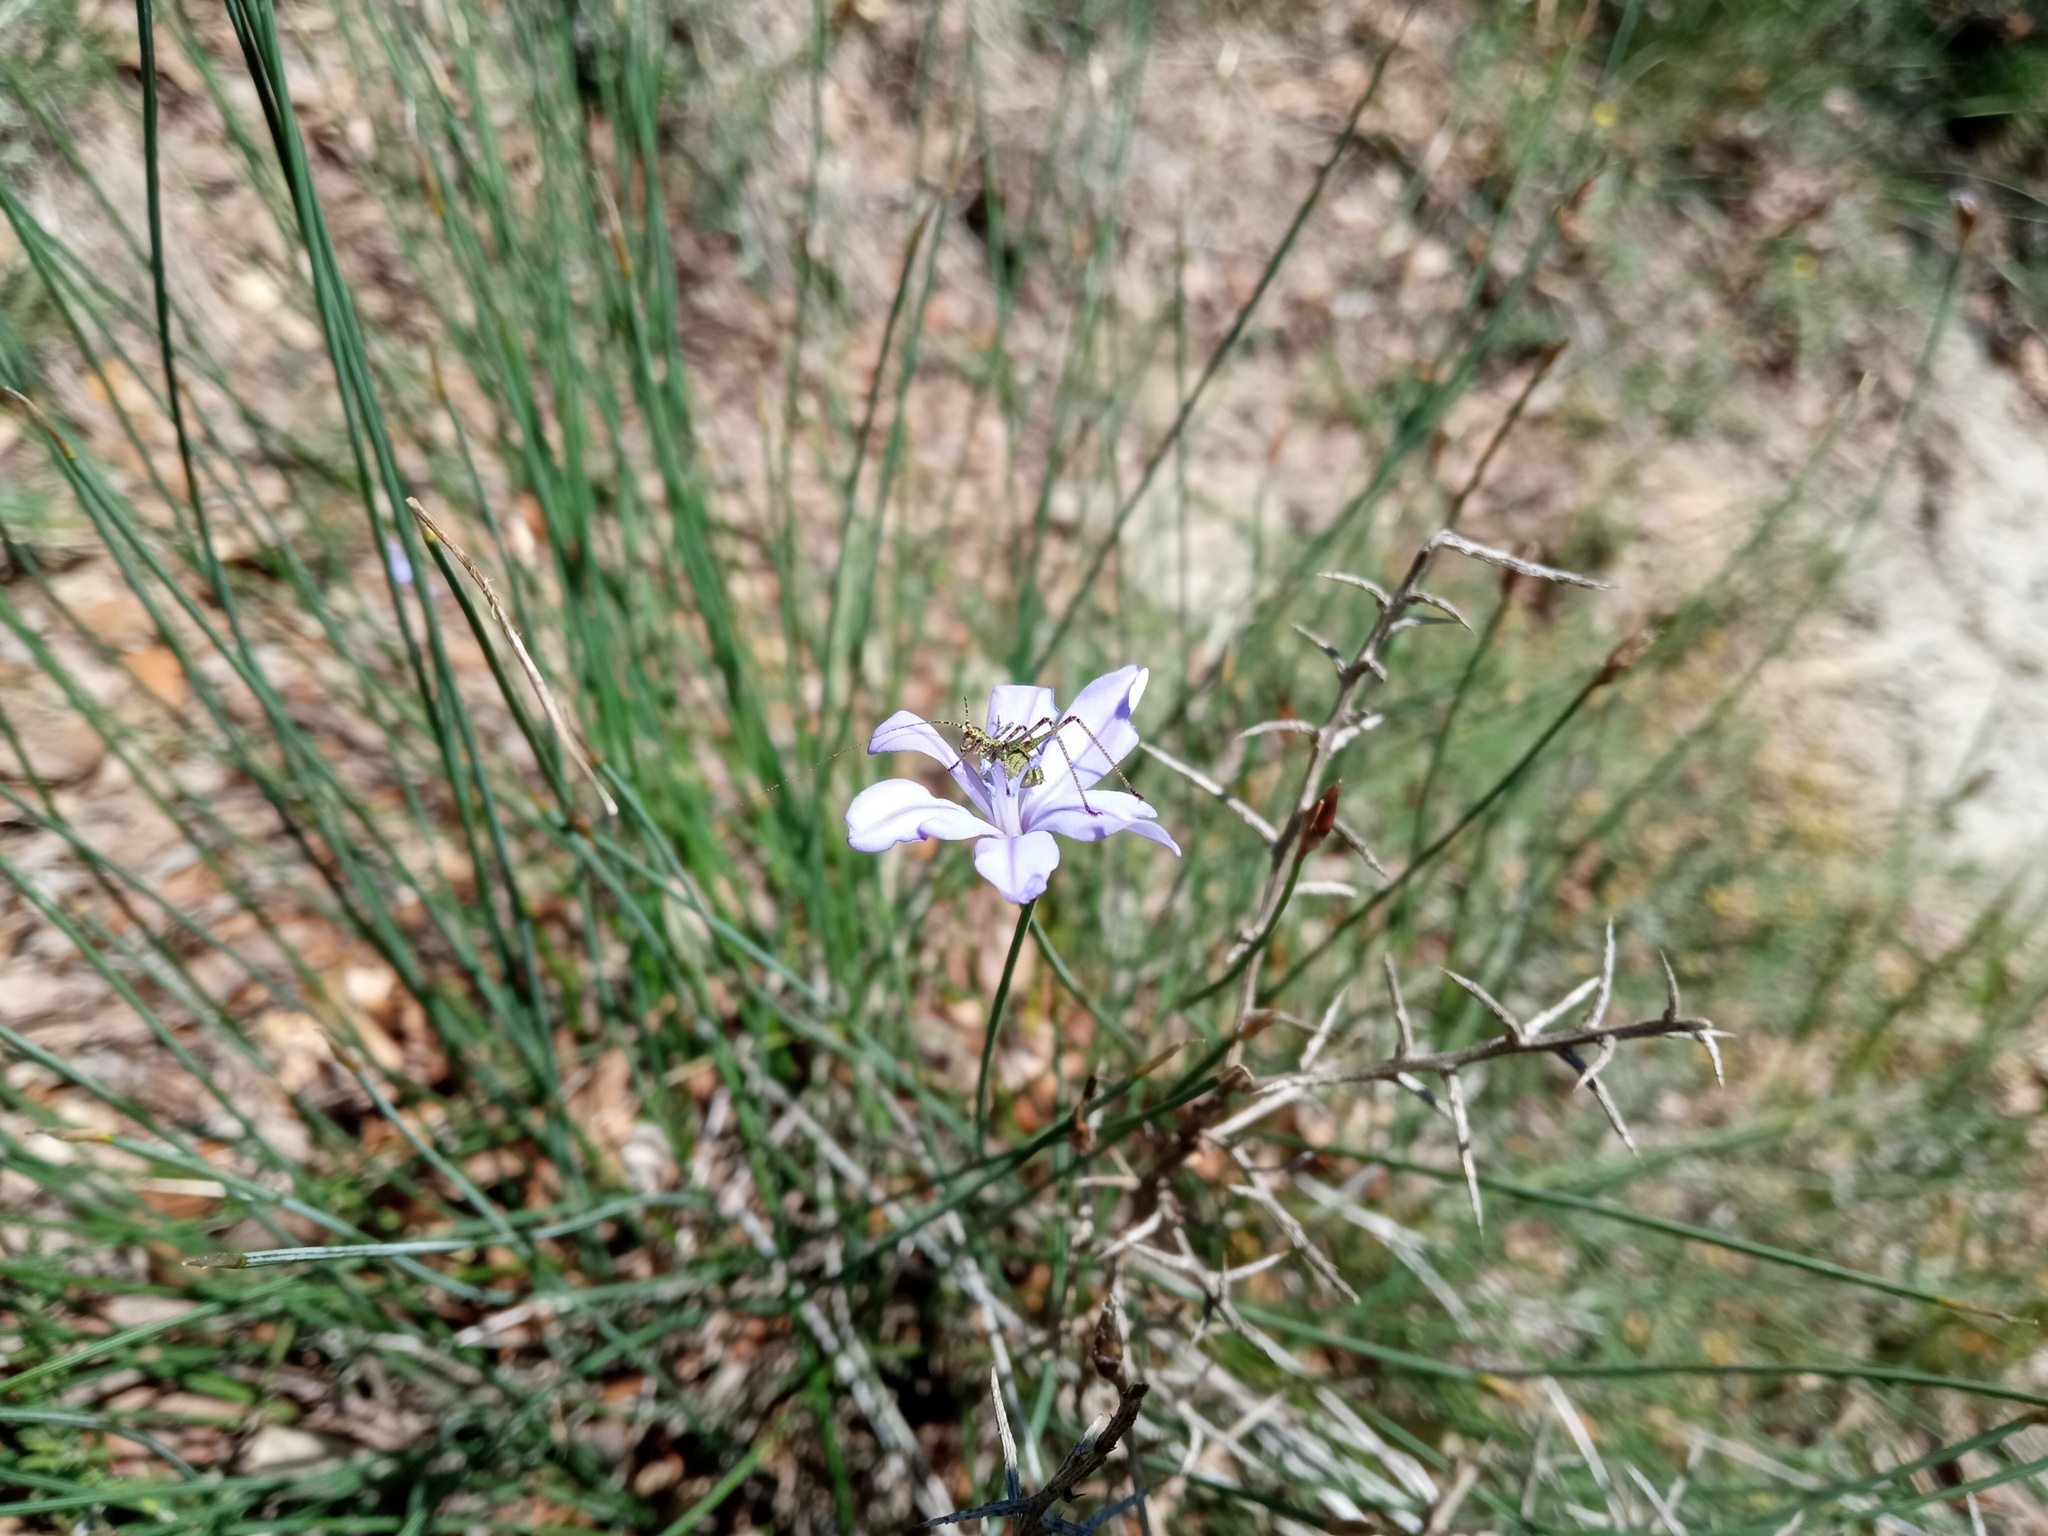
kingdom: Plantae
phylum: Tracheophyta
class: Liliopsida
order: Asparagales
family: Asparagaceae
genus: Aphyllanthes
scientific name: Aphyllanthes monspeliensis
